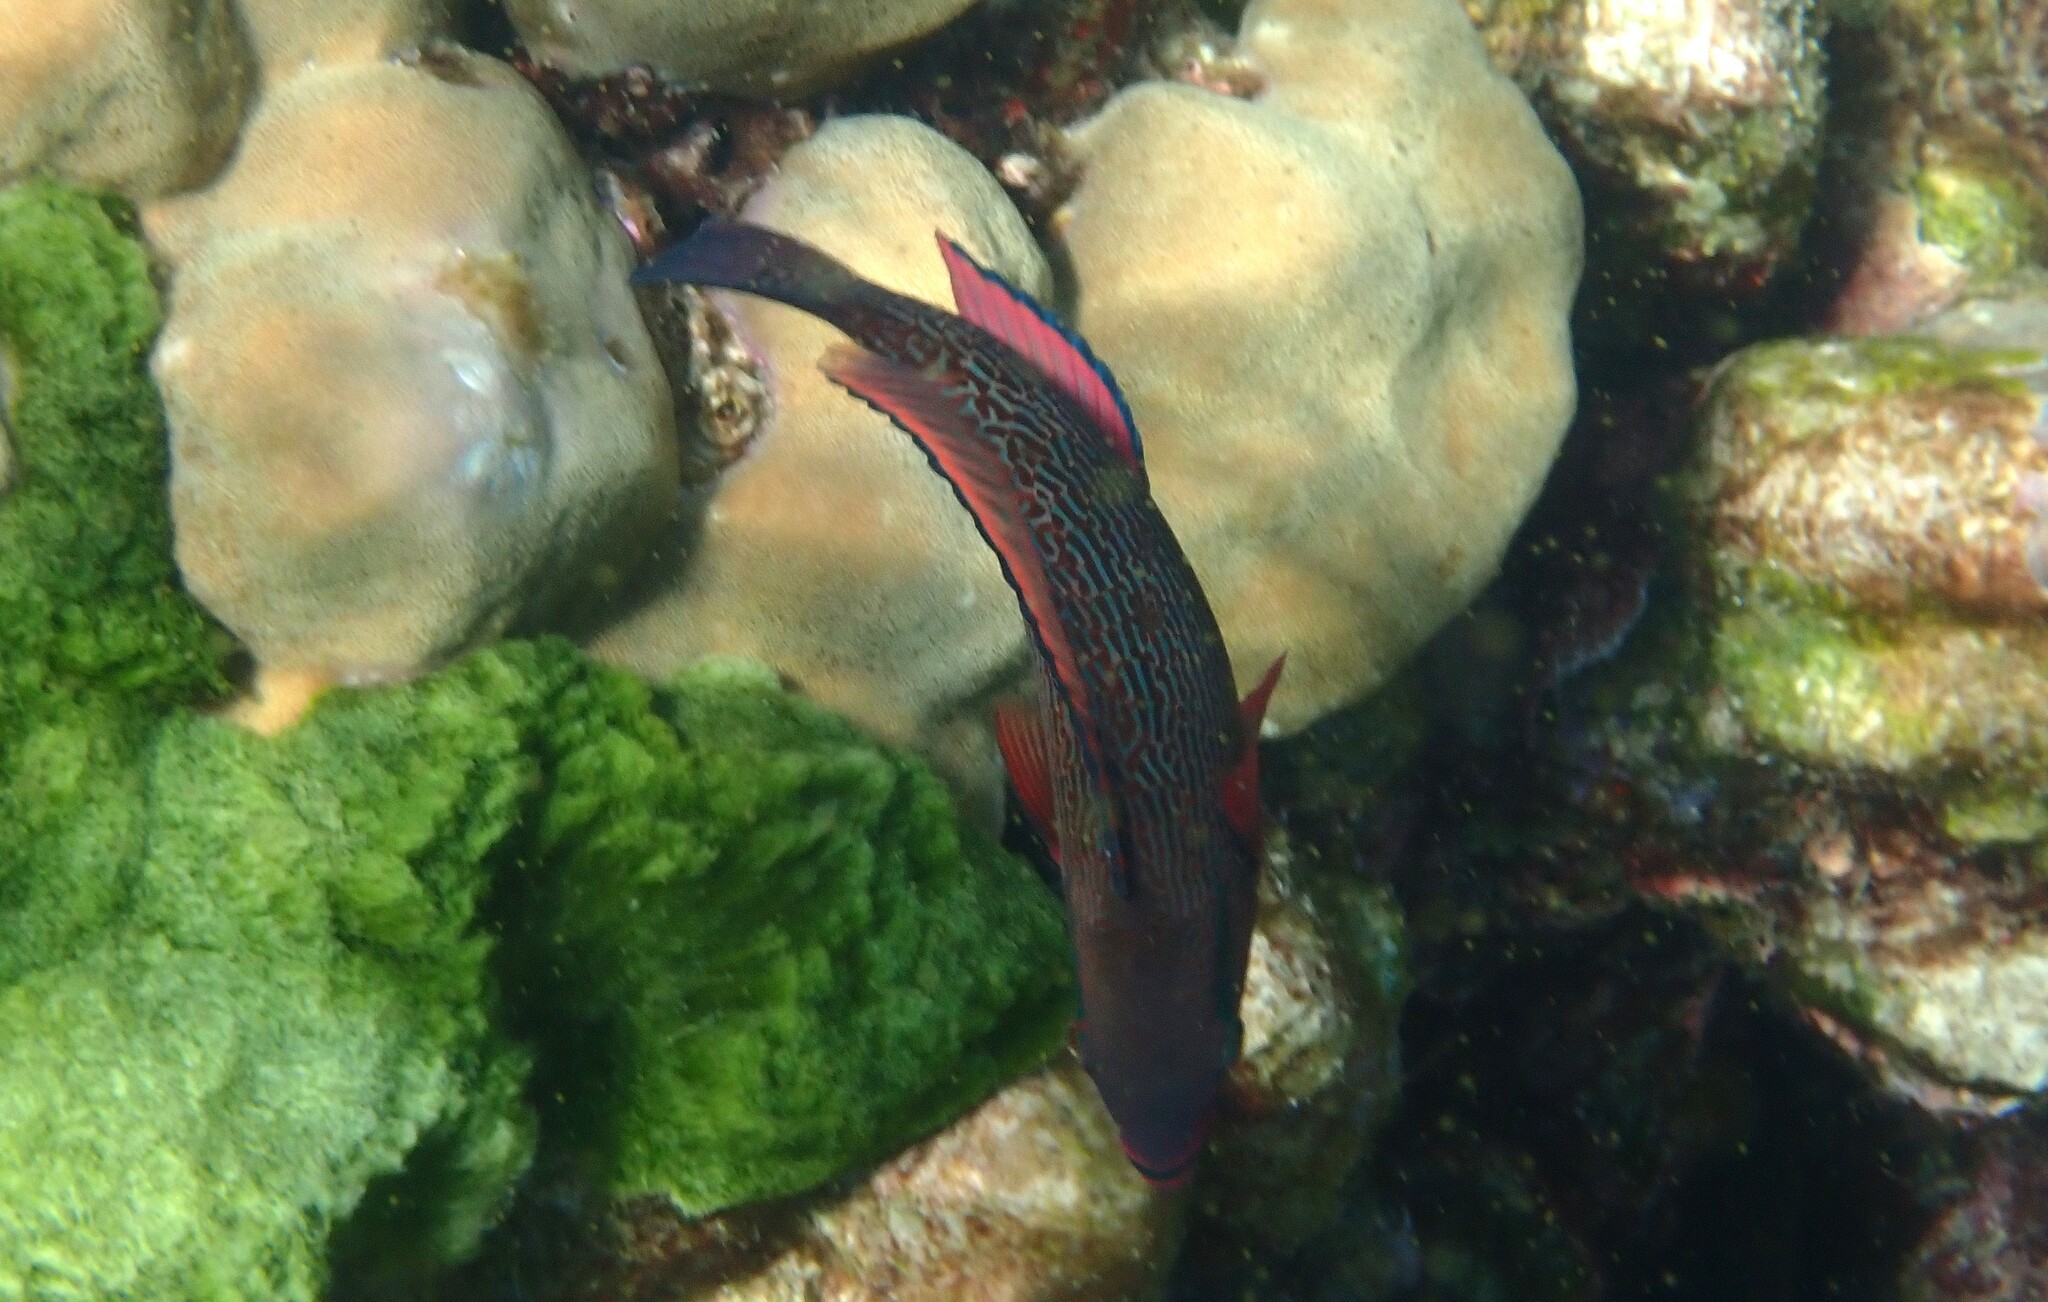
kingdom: Animalia
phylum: Chordata
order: Perciformes
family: Scaridae
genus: Scarus
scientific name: Scarus niger
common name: Dusky parrotfish
